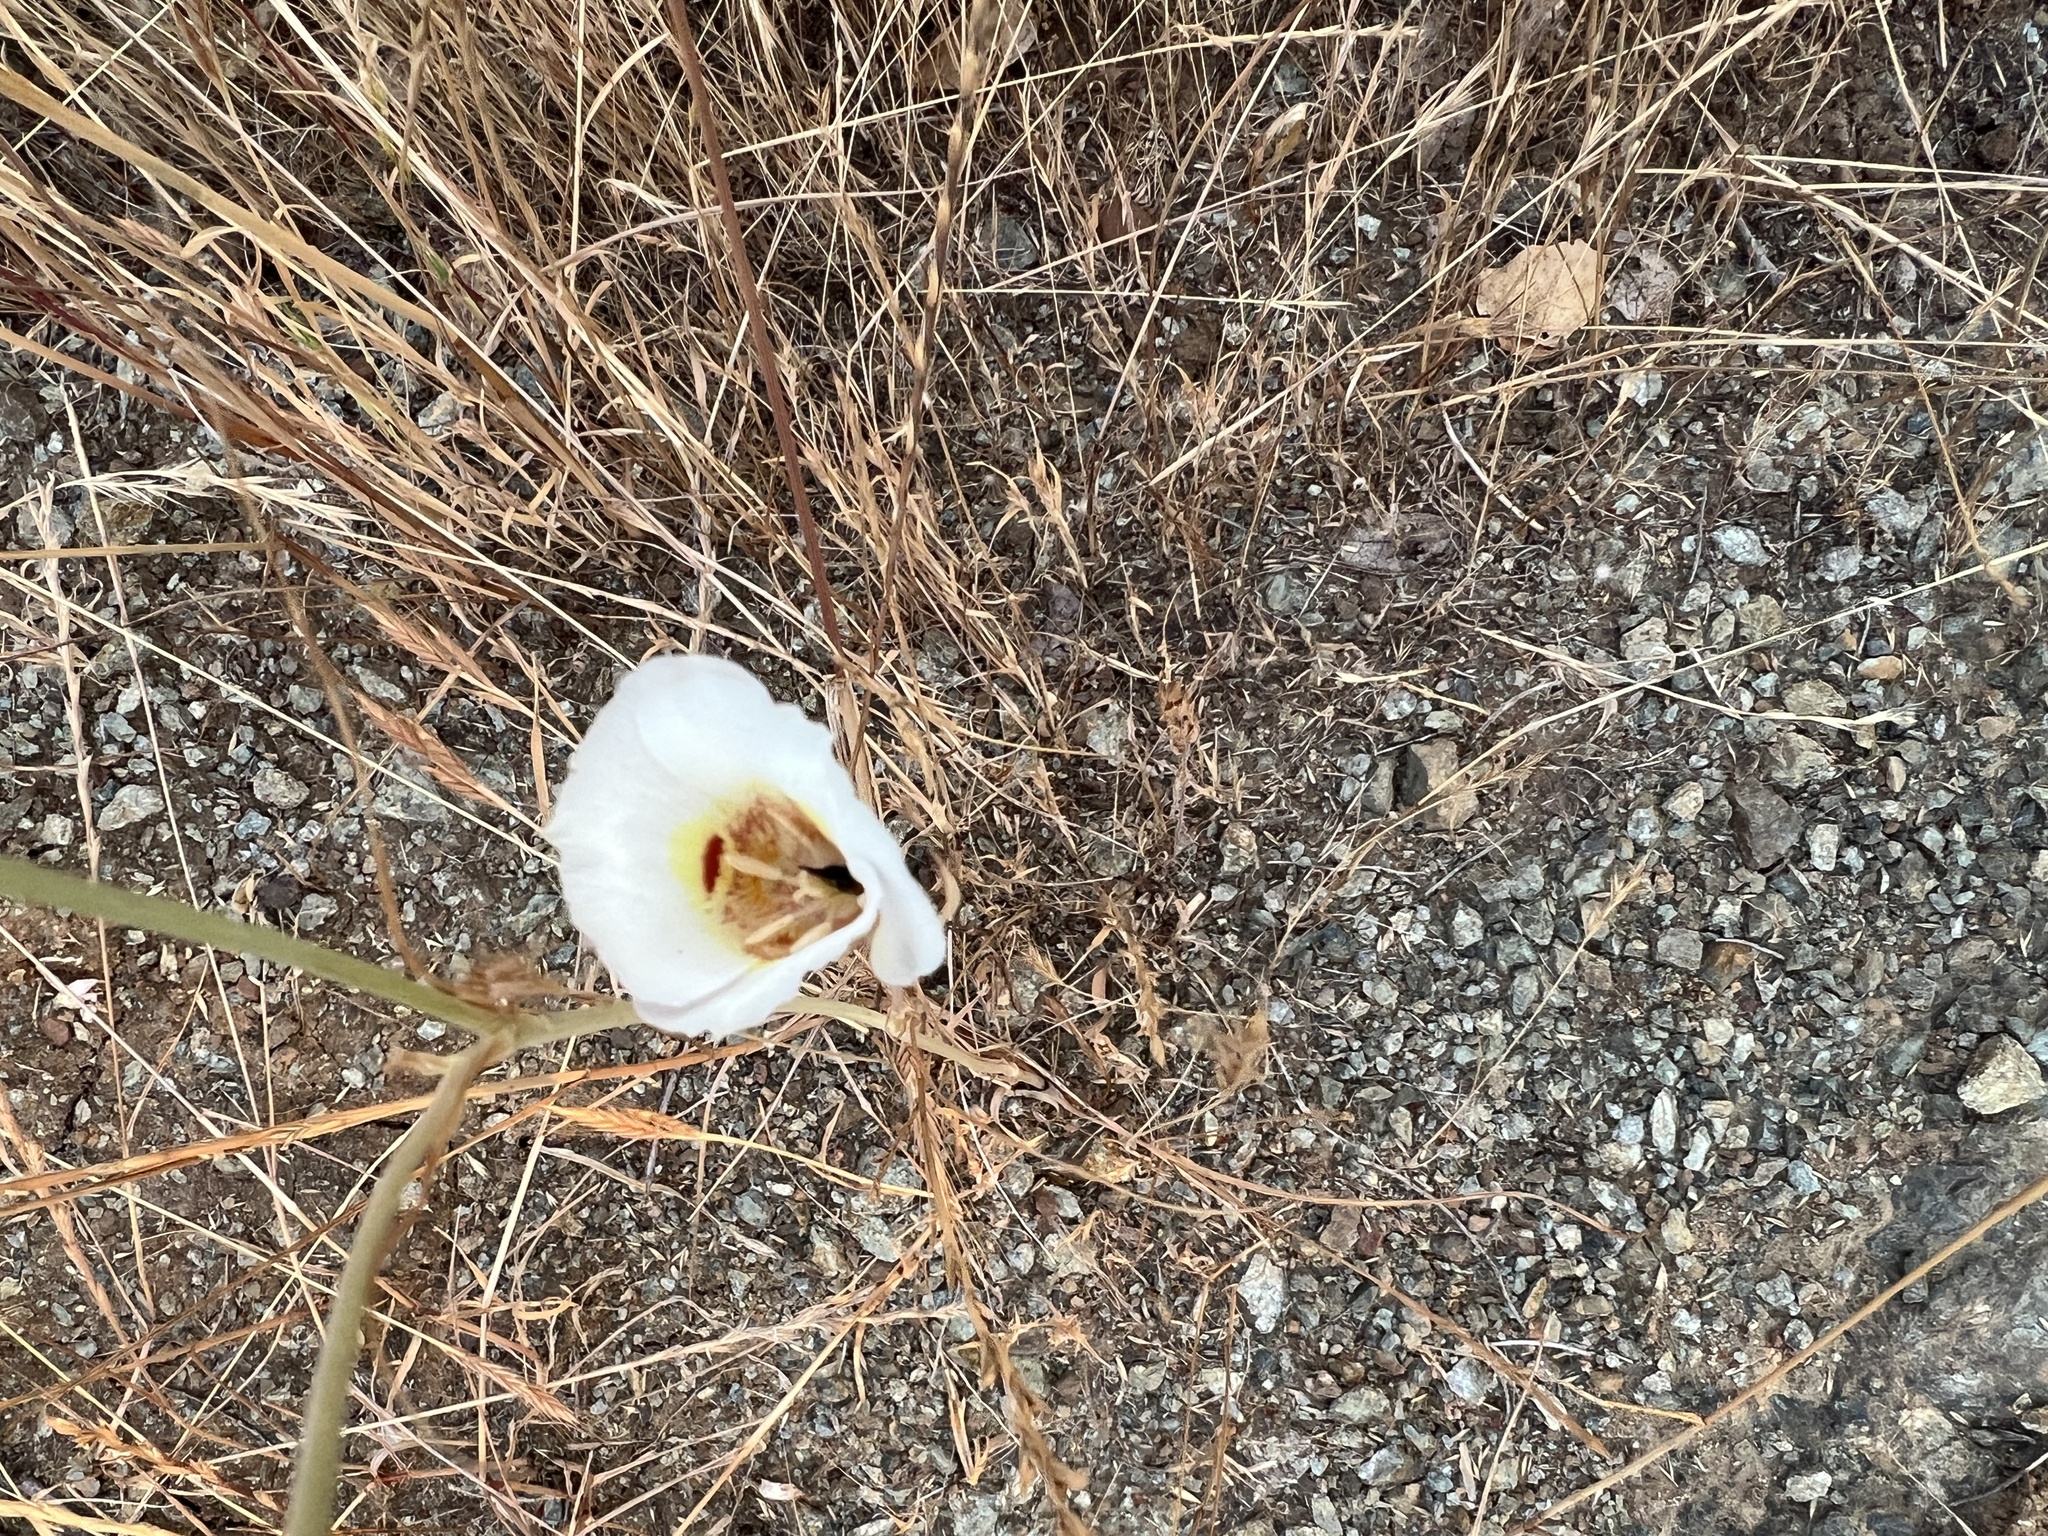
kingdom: Plantae
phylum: Tracheophyta
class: Liliopsida
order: Liliales
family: Liliaceae
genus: Calochortus
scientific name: Calochortus argillosus
